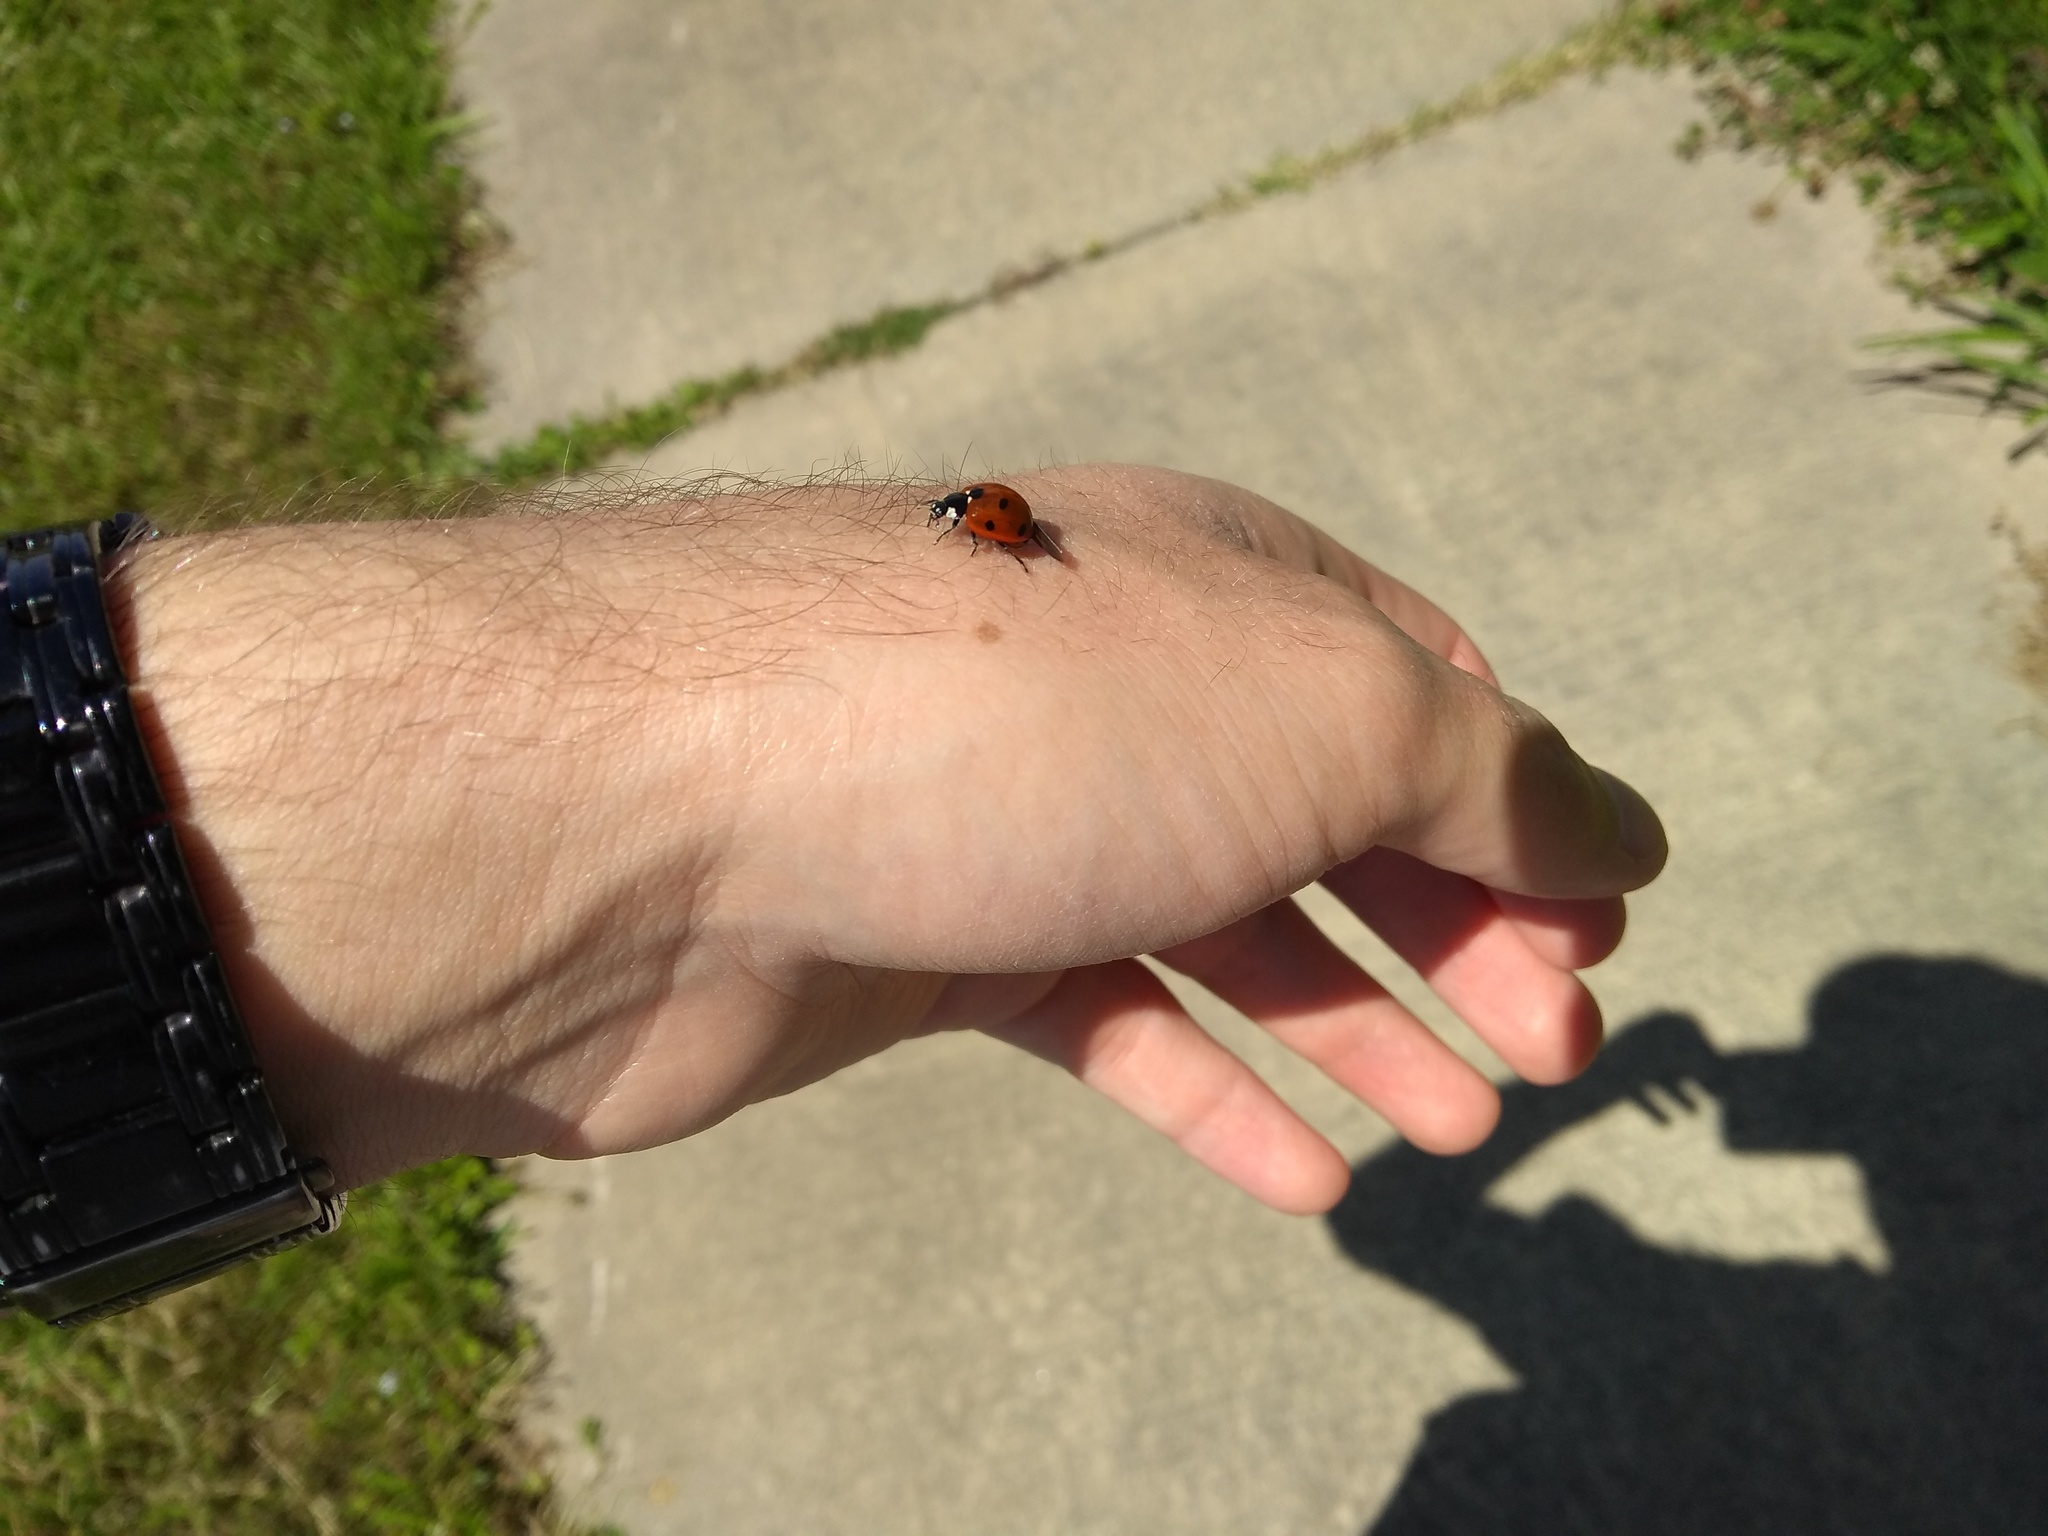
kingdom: Animalia
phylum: Arthropoda
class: Insecta
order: Coleoptera
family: Coccinellidae
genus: Coccinella
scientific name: Coccinella septempunctata
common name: Sevenspotted lady beetle
